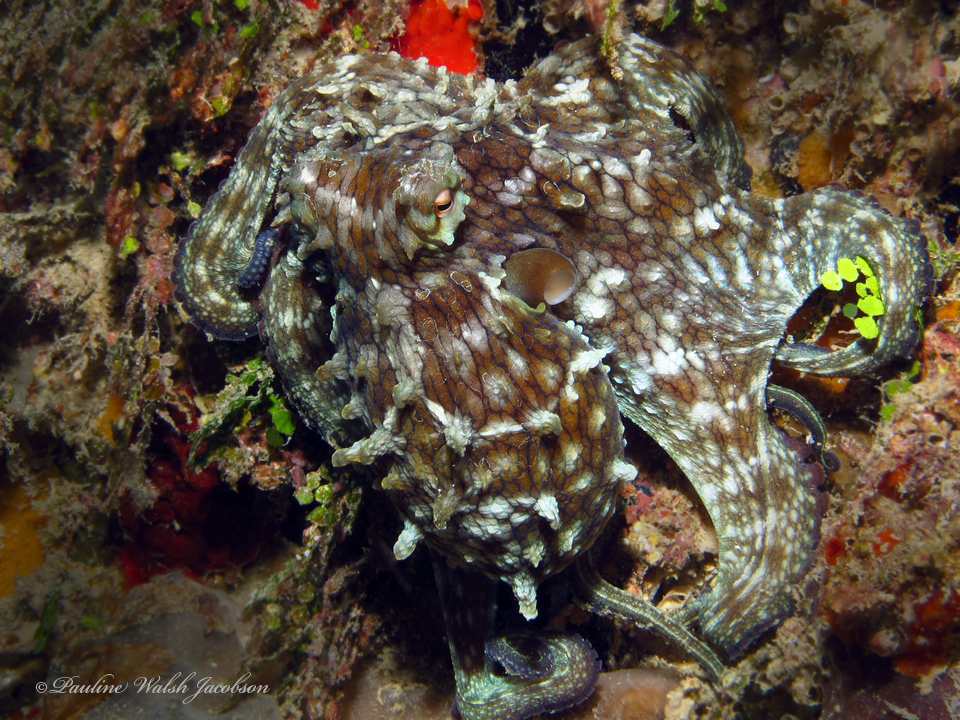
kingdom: Animalia
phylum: Mollusca
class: Cephalopoda
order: Octopoda
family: Octopodidae
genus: Octopus
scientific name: Octopus insularis
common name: Brazil reef octopus
